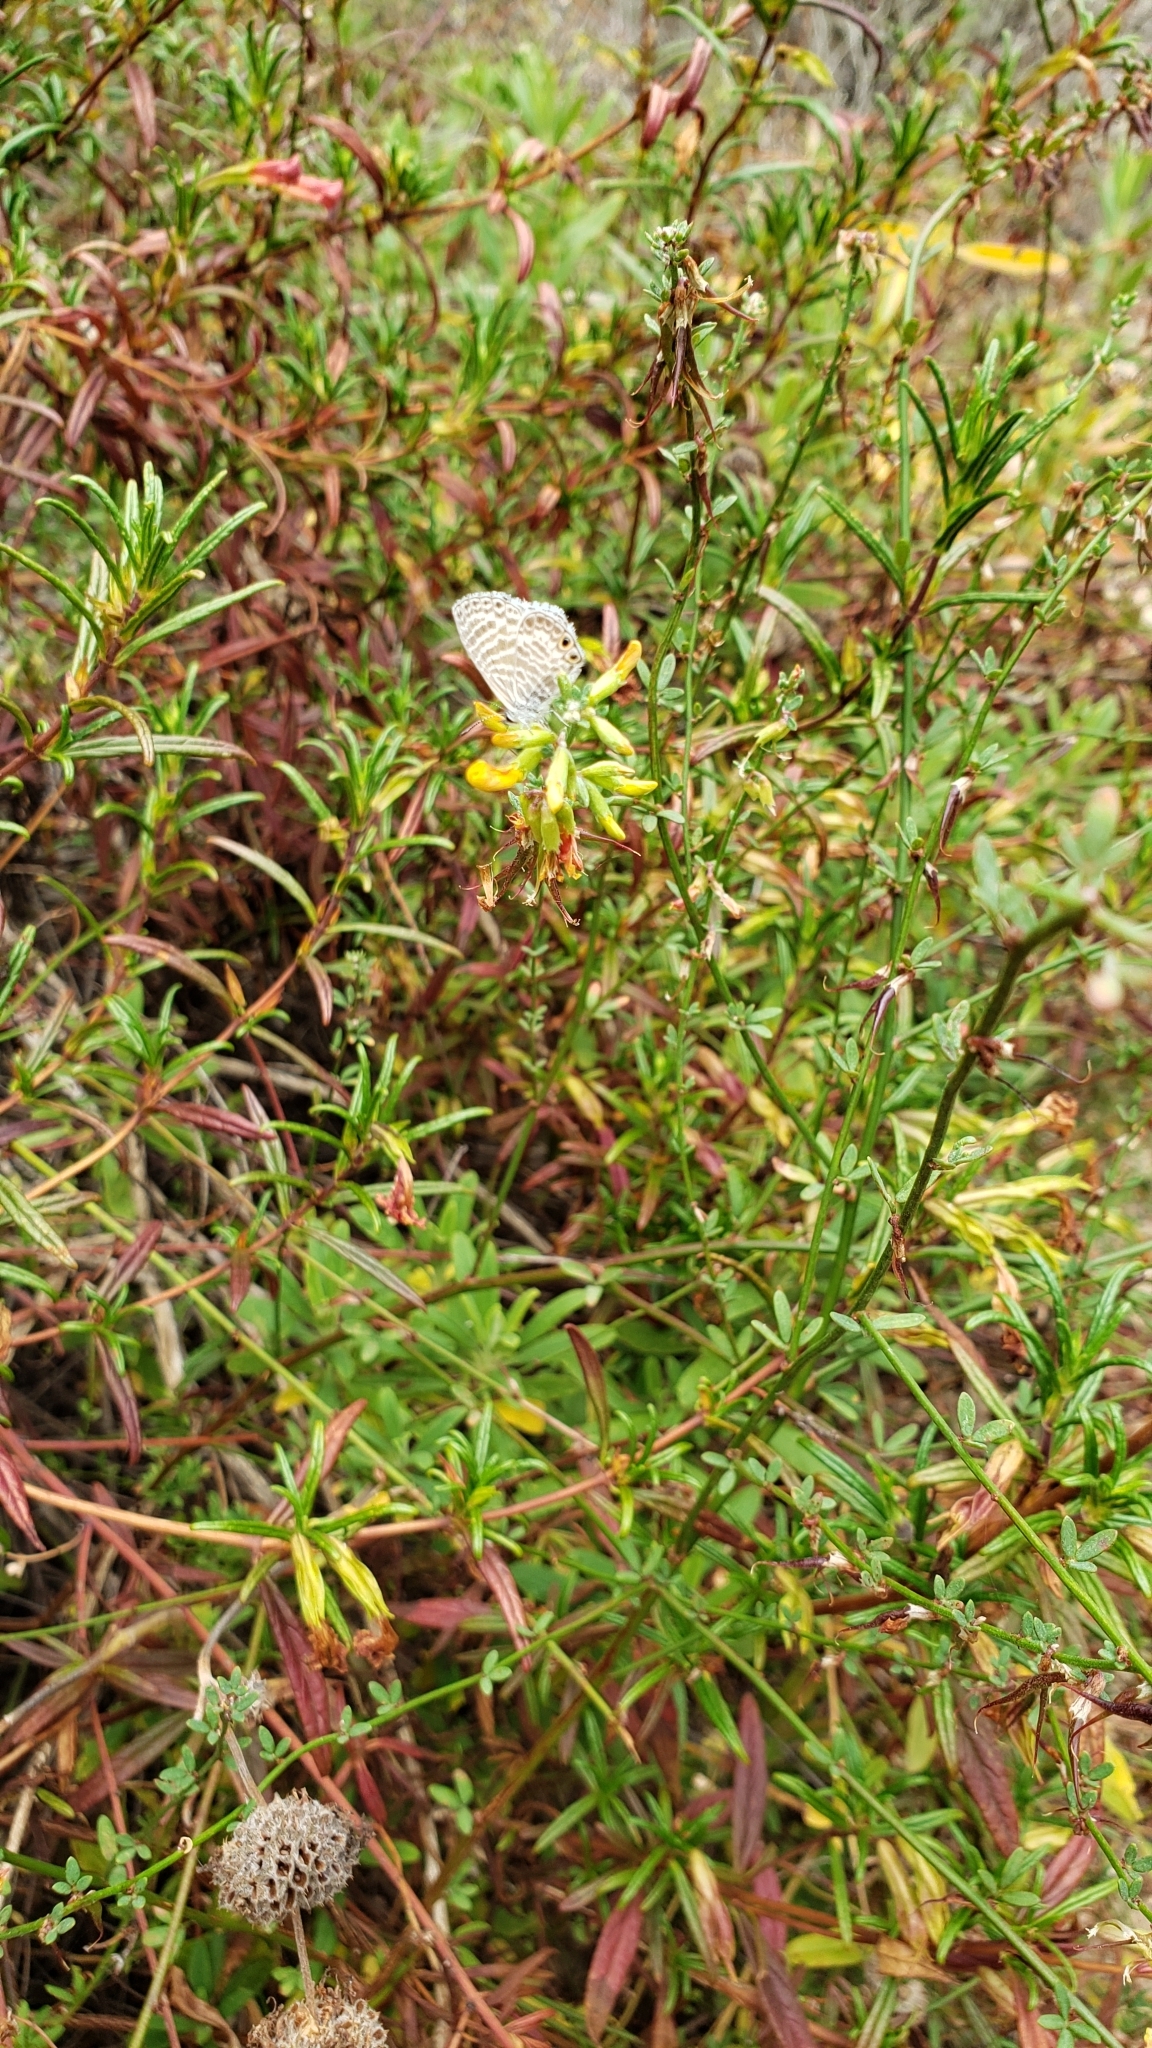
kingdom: Animalia
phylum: Arthropoda
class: Insecta
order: Lepidoptera
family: Lycaenidae
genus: Leptotes
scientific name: Leptotes marina
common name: Marine blue
